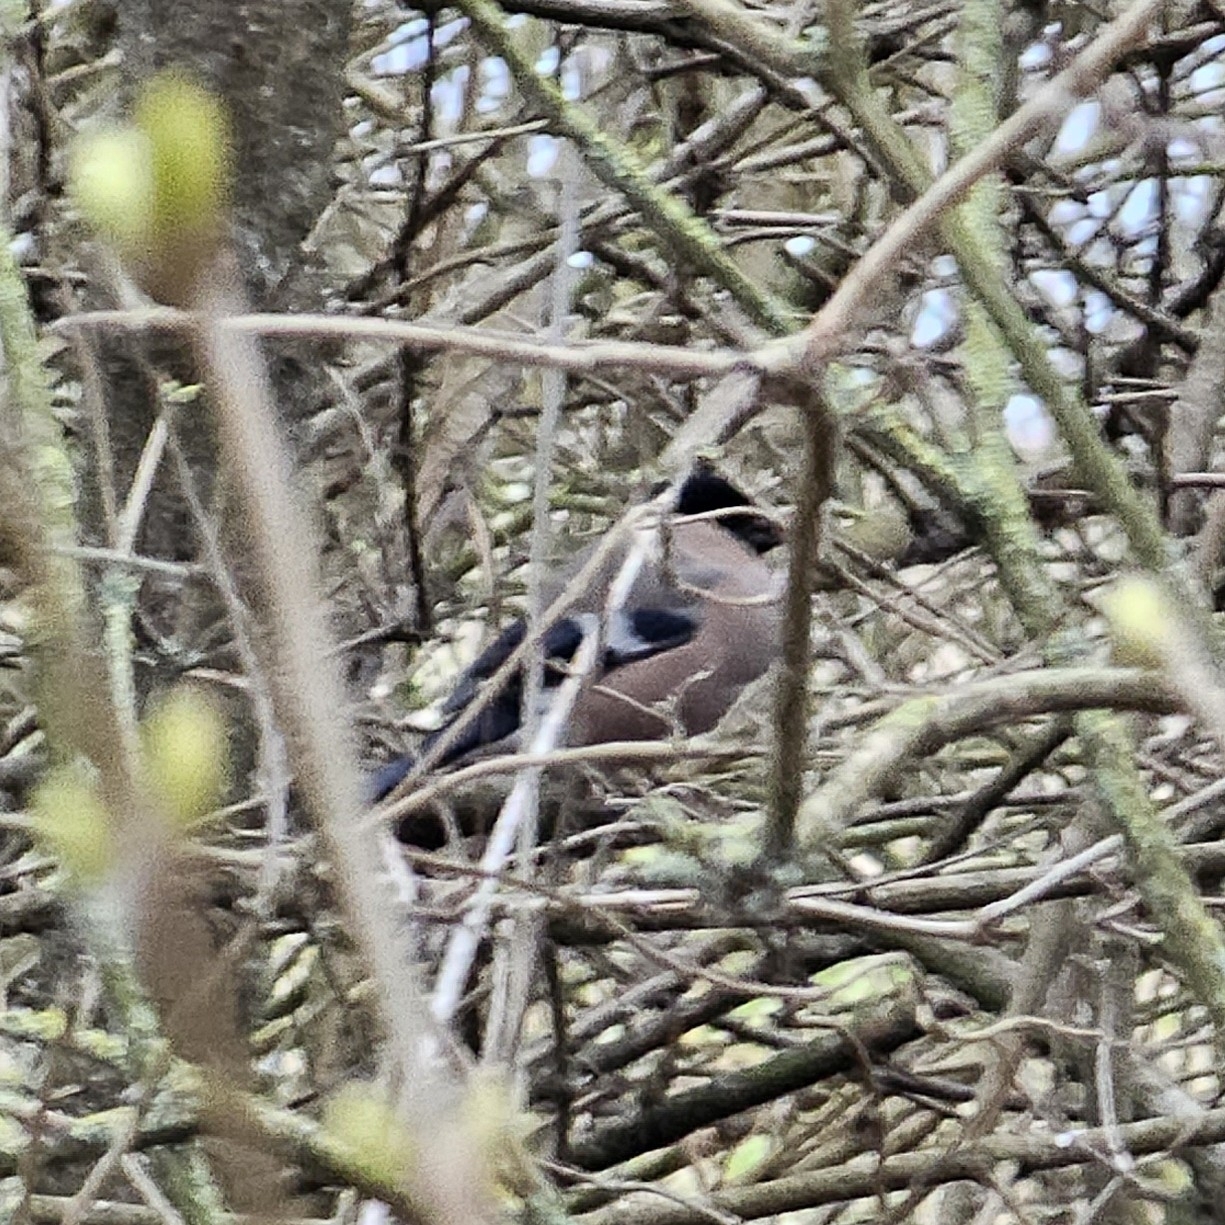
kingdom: Animalia
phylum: Chordata
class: Aves
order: Passeriformes
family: Fringillidae
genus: Pyrrhula
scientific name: Pyrrhula pyrrhula
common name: Eurasian bullfinch
